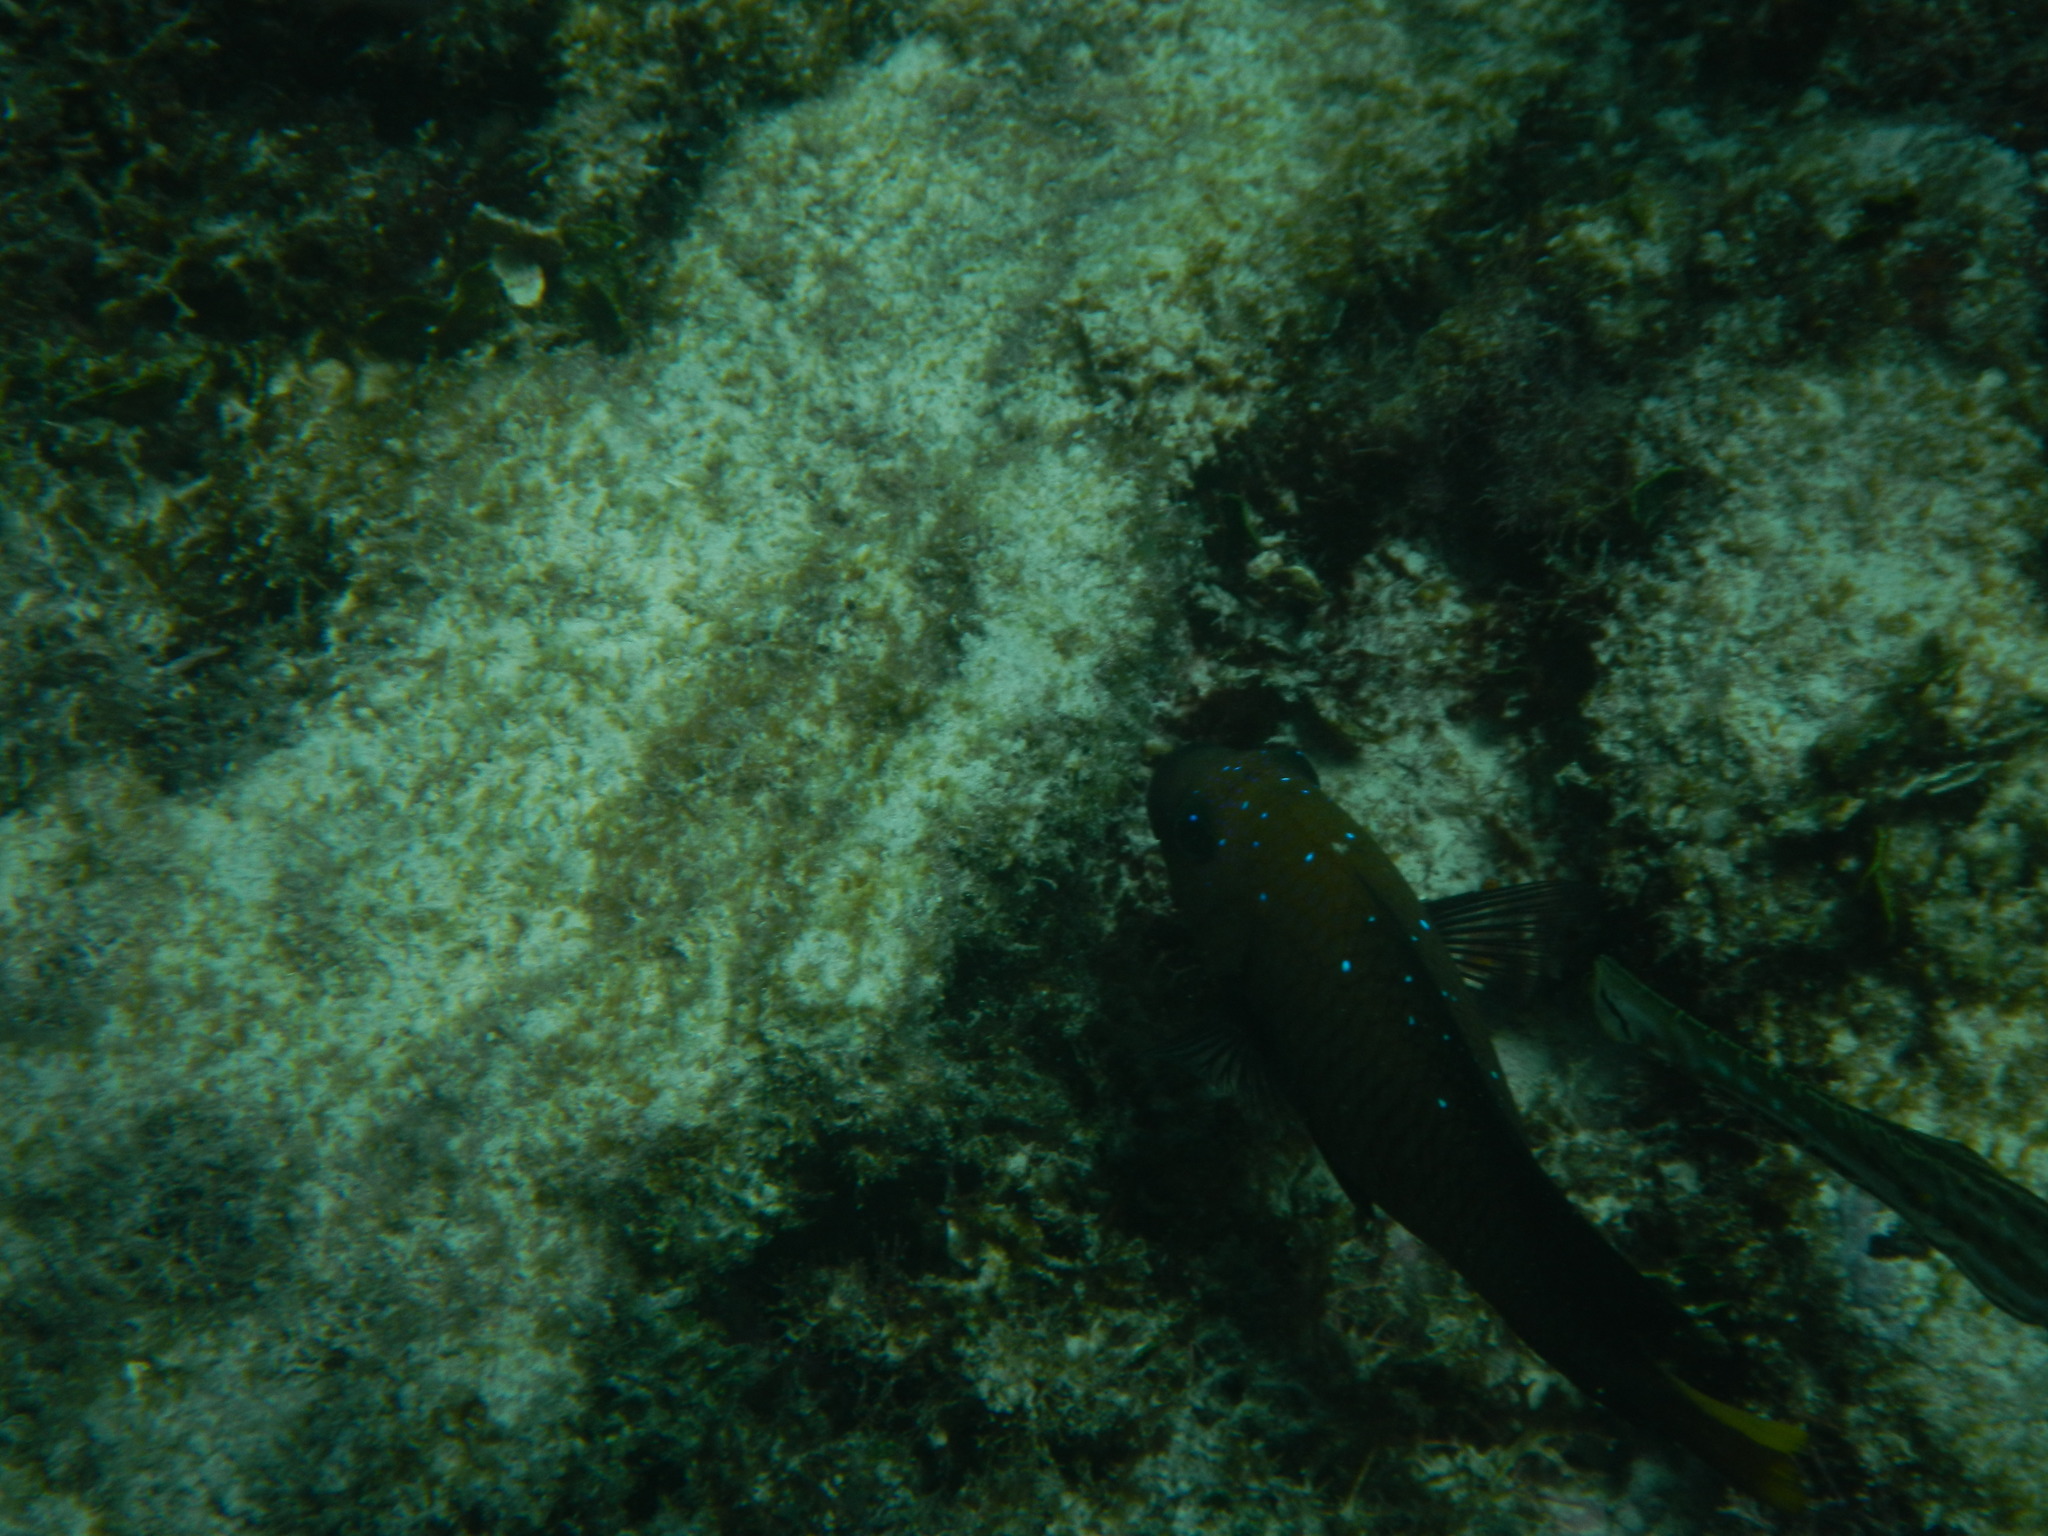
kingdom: Animalia
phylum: Chordata
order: Perciformes
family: Pomacentridae
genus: Microspathodon
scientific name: Microspathodon chrysurus
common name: Yellowtail damselfish
